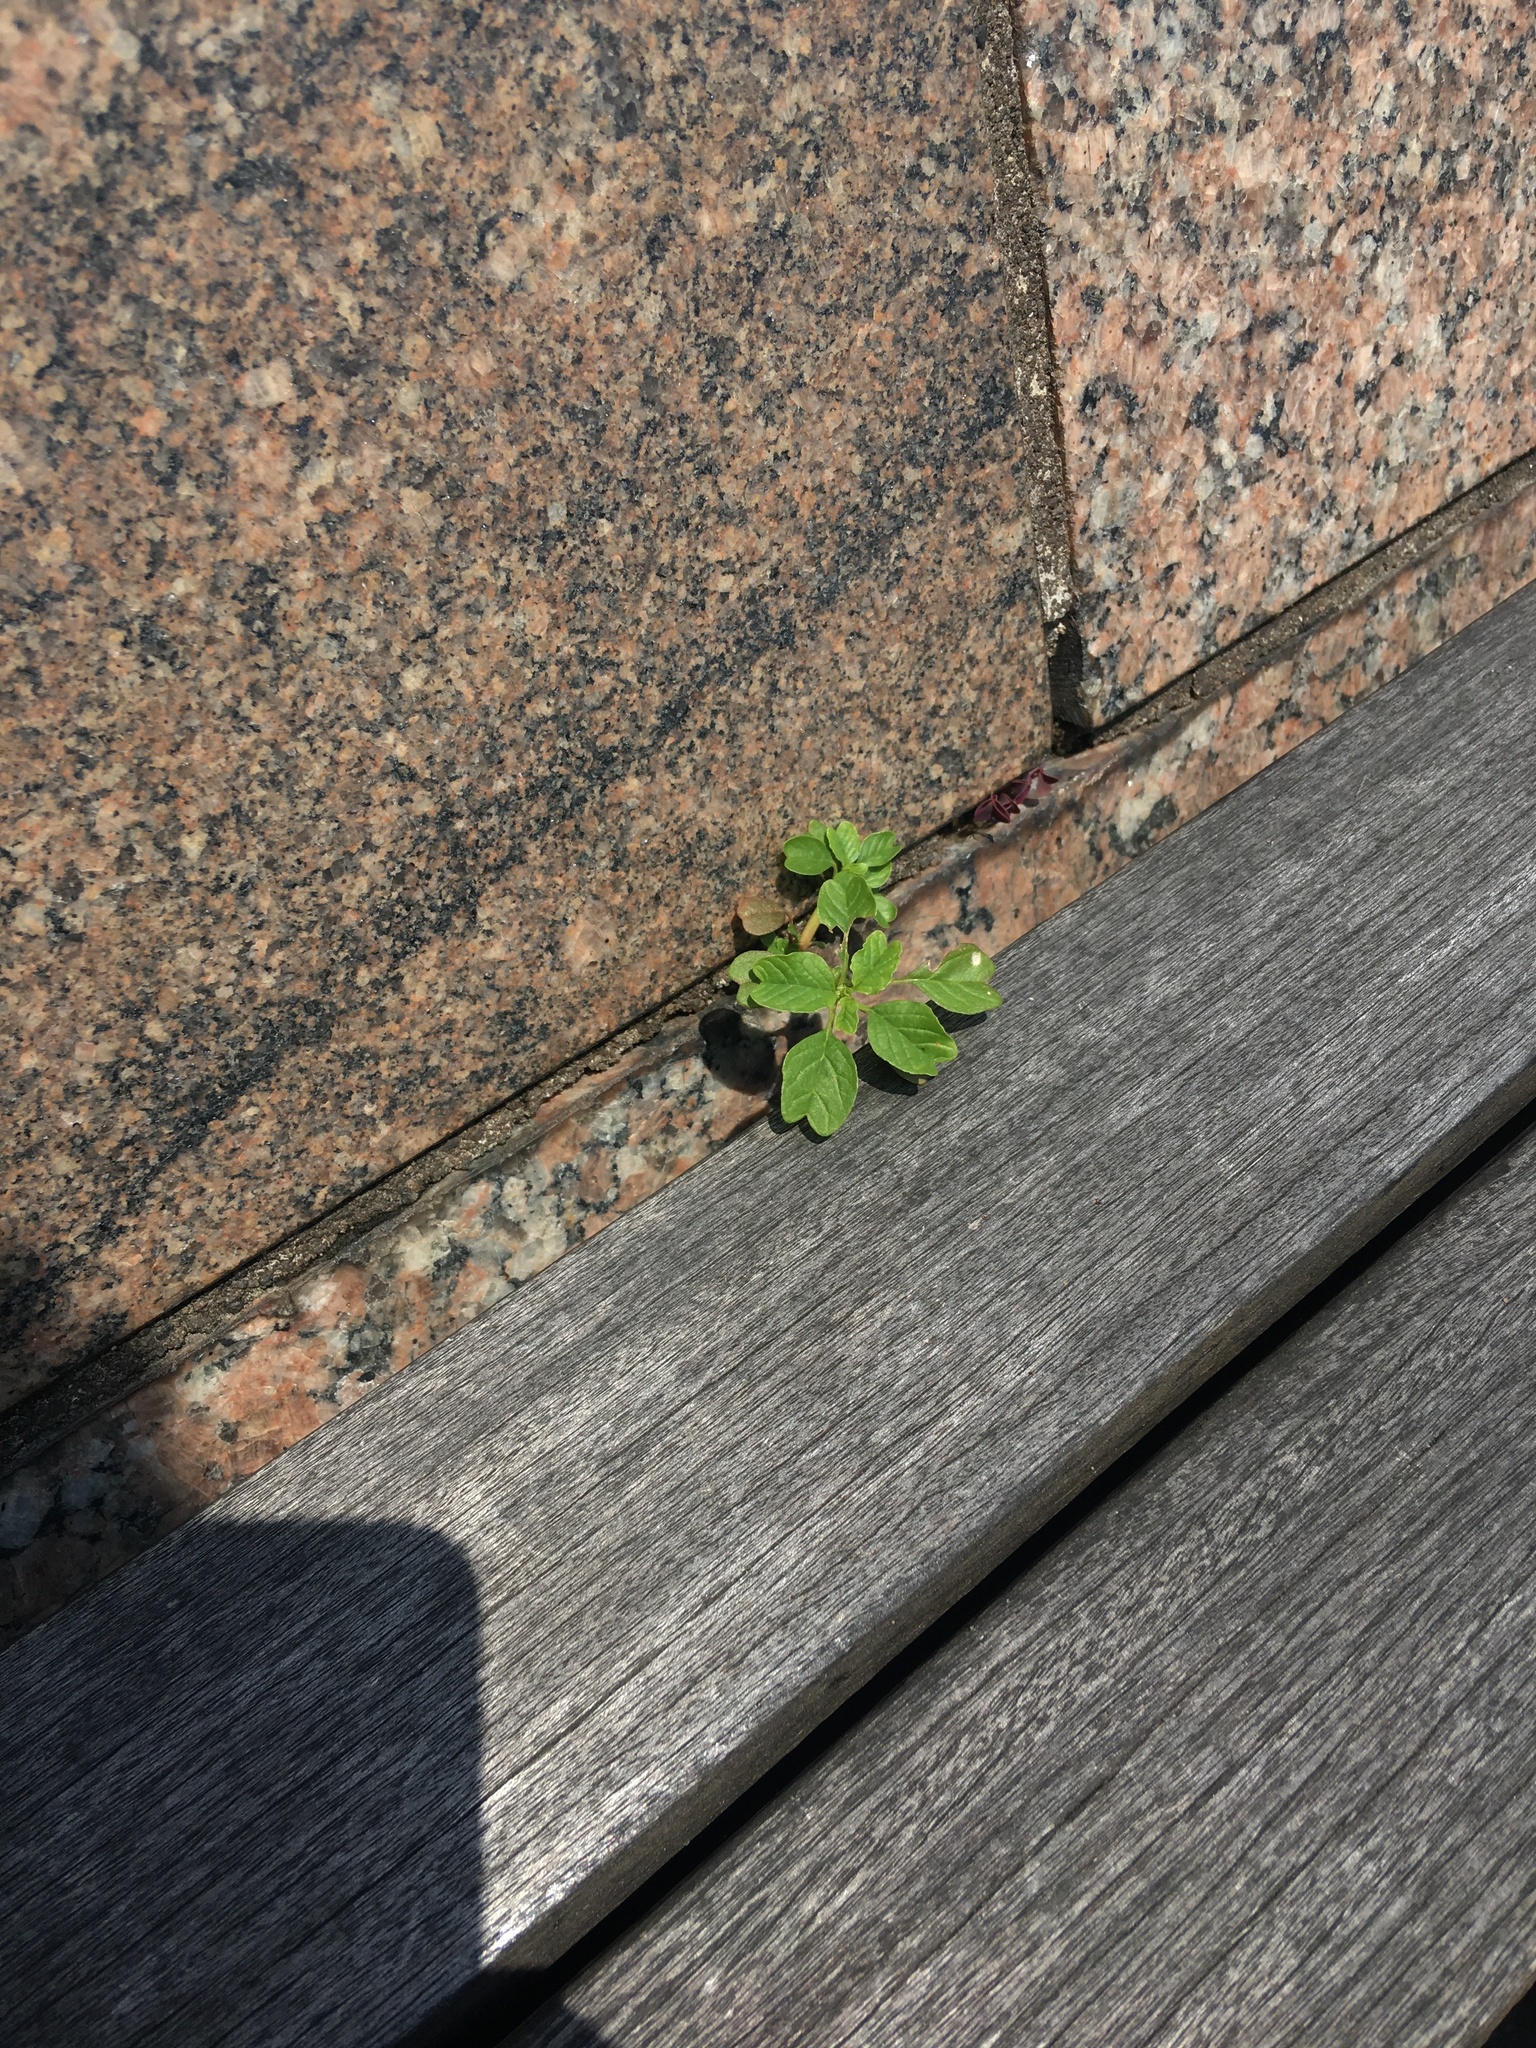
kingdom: Plantae
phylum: Tracheophyta
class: Magnoliopsida
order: Caryophyllales
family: Amaranthaceae
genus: Amaranthus
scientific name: Amaranthus blitum
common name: Purple amaranth
